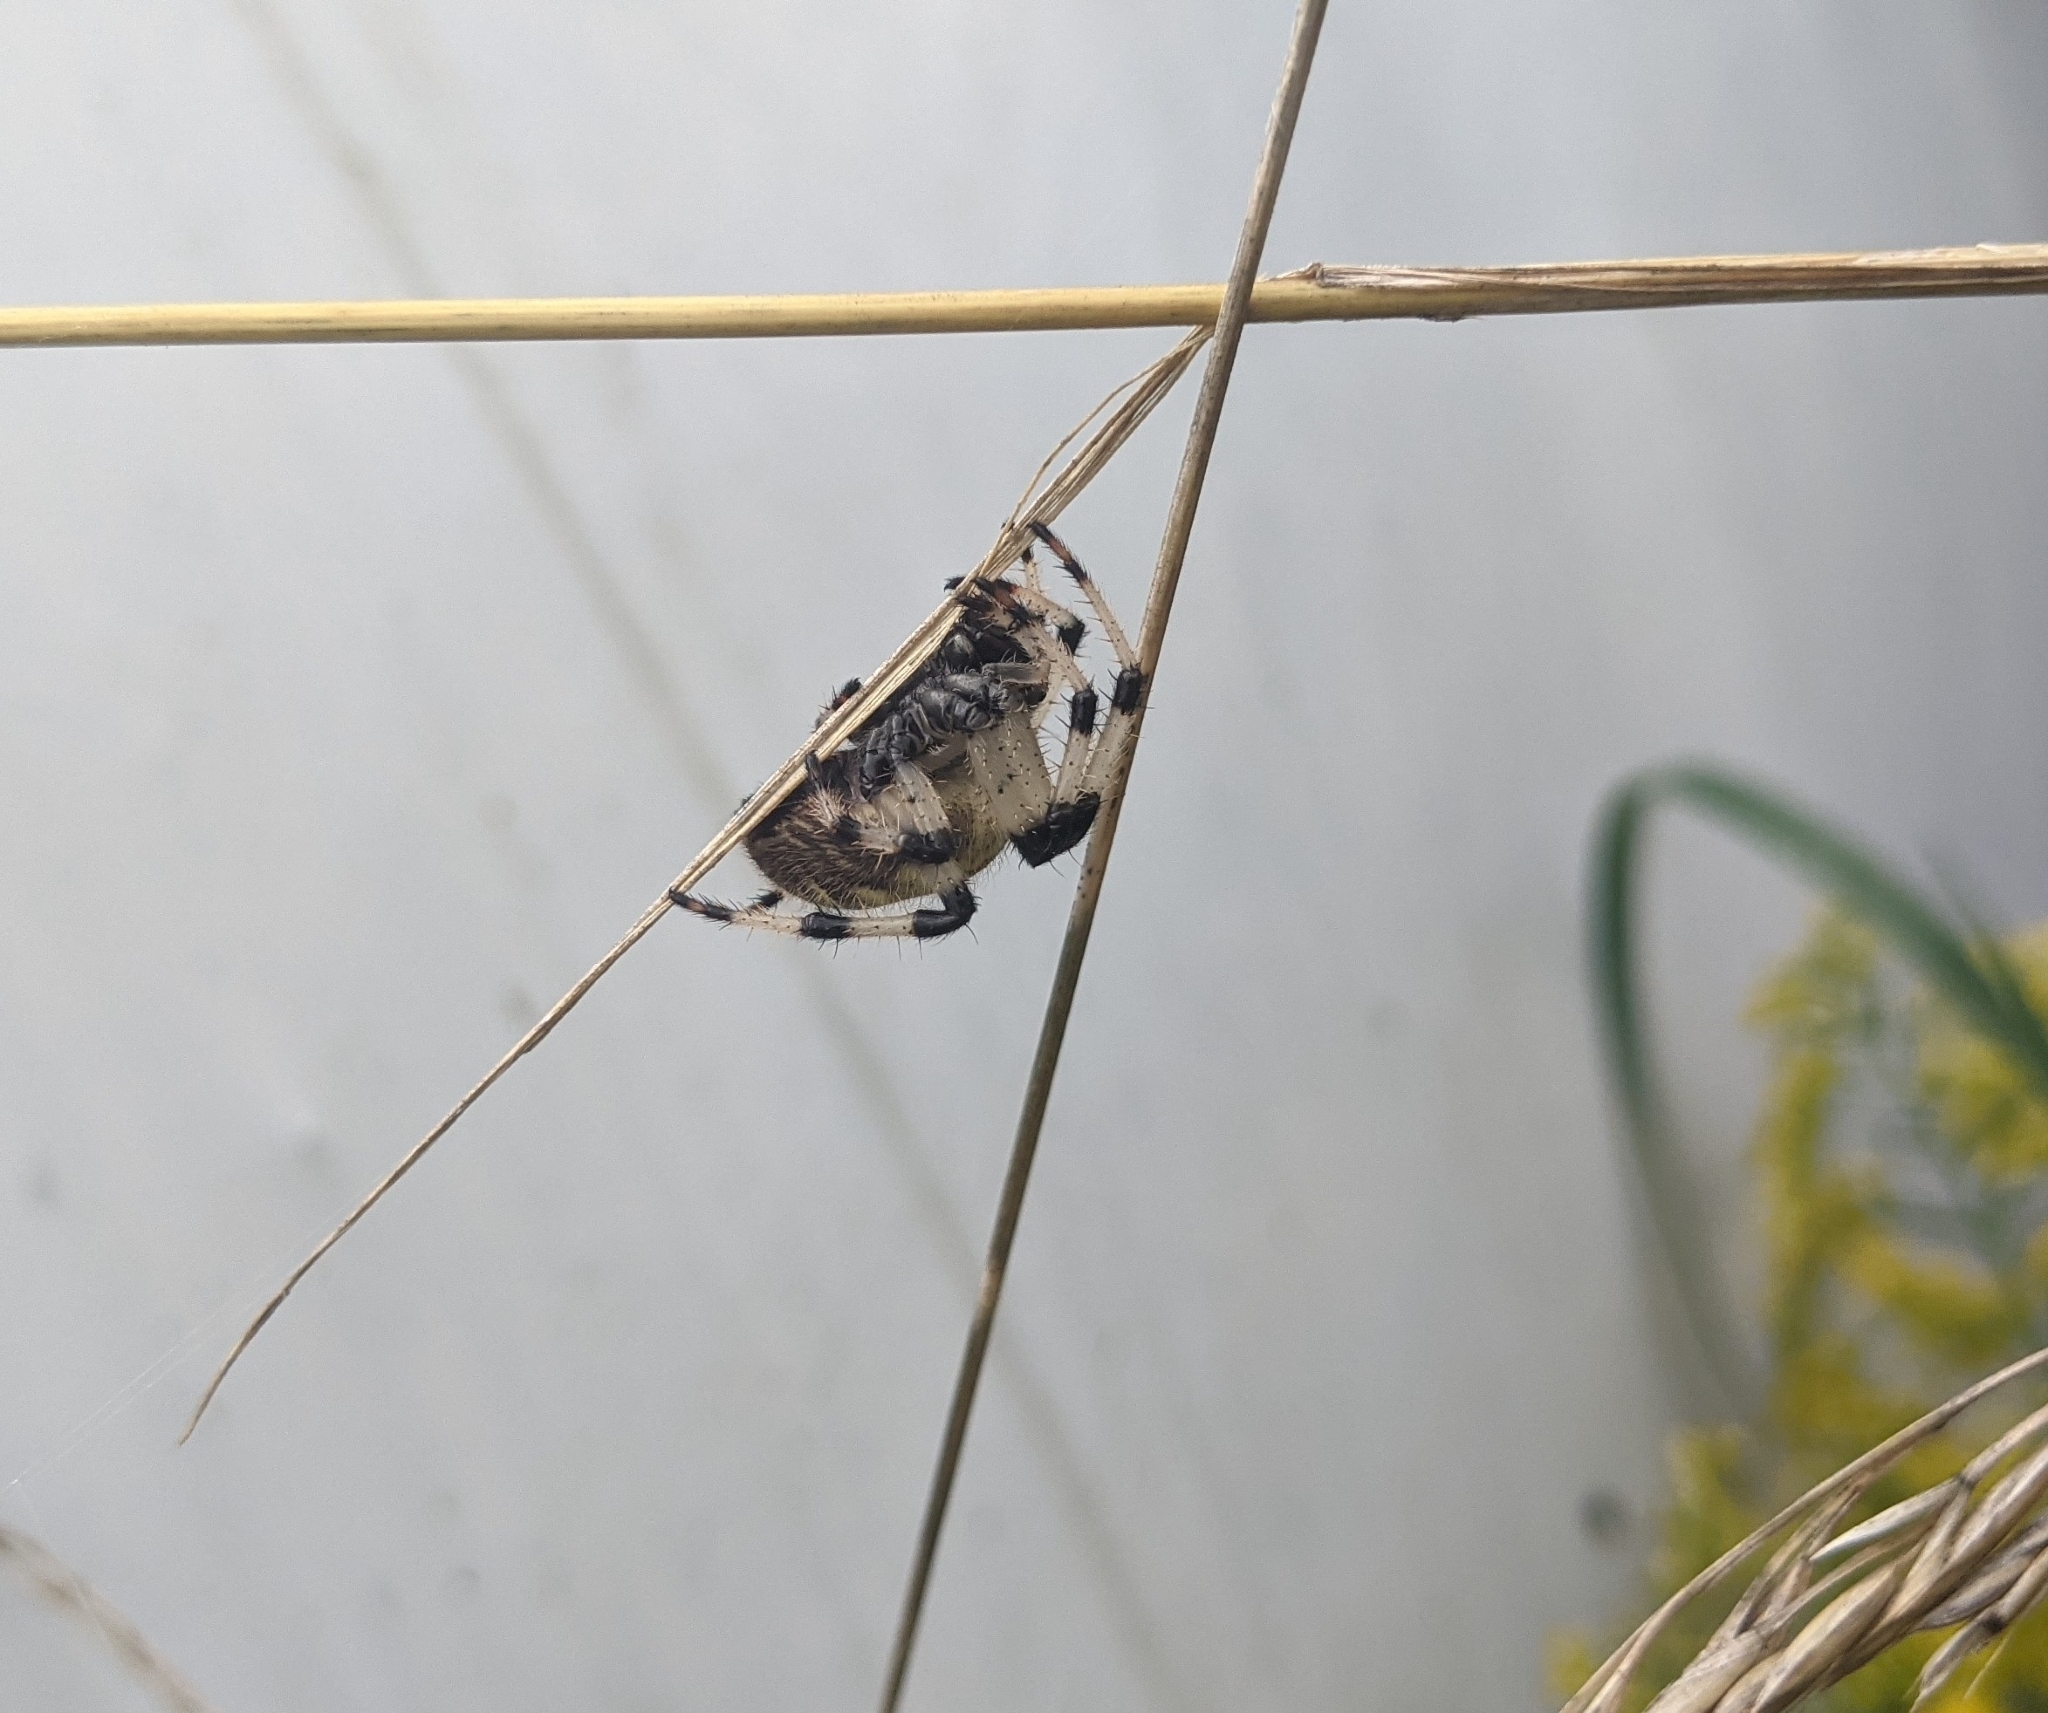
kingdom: Animalia
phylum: Arthropoda
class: Arachnida
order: Araneae
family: Araneidae
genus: Araneus
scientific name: Araneus trifolium
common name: Shamrock orbweaver
